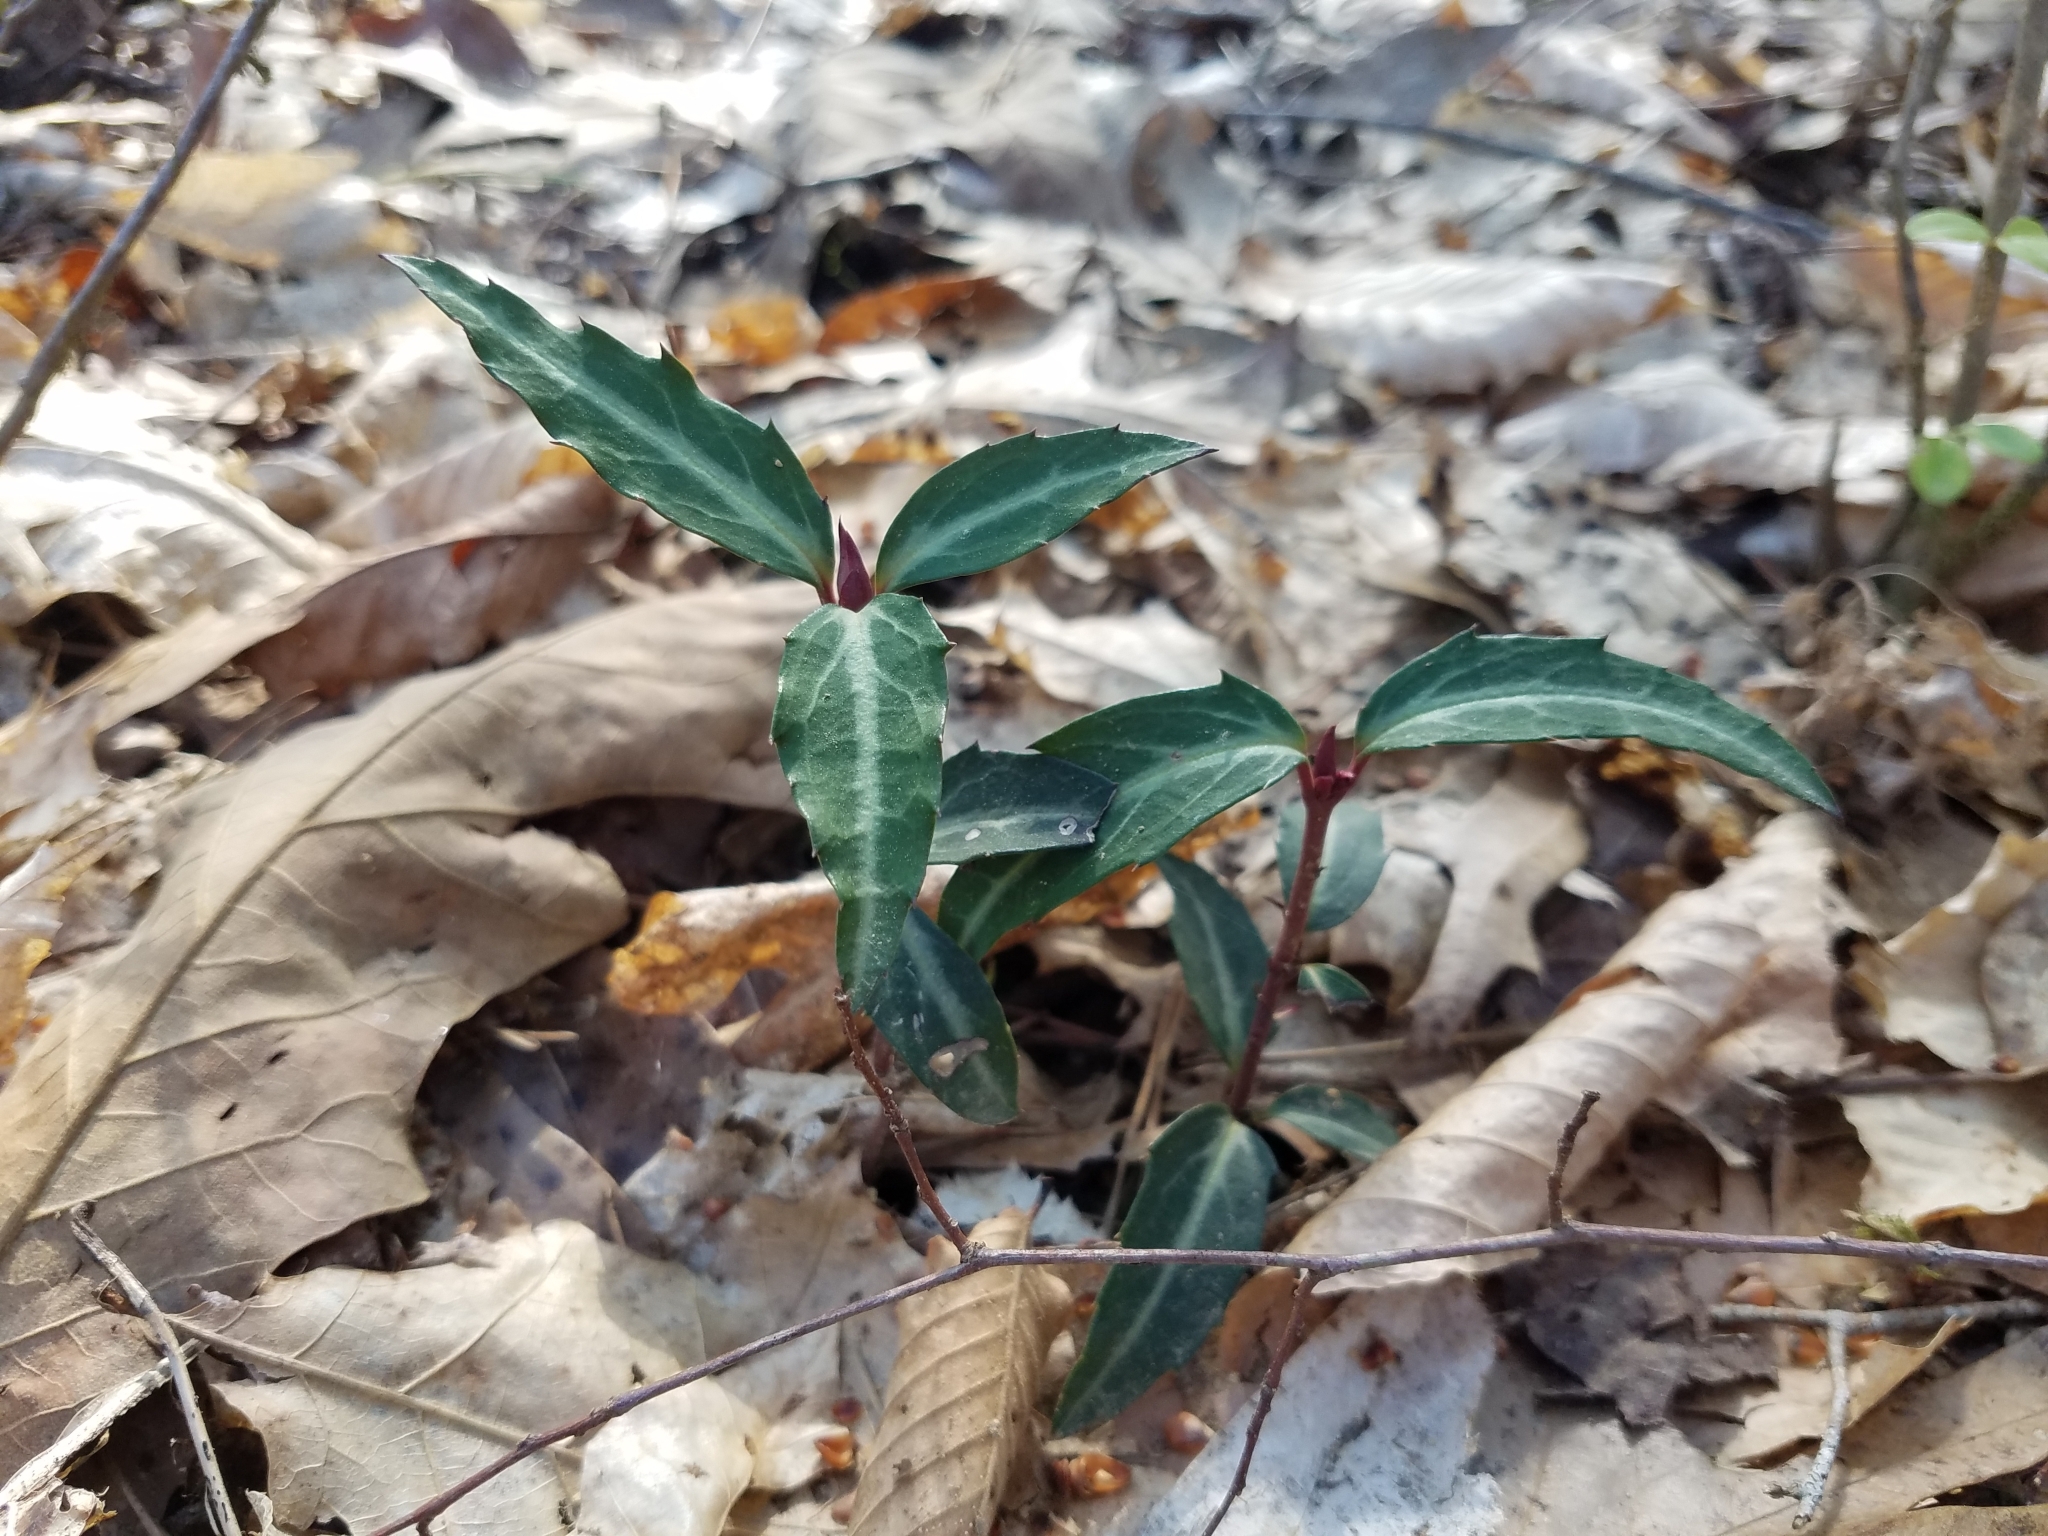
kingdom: Plantae
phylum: Tracheophyta
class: Magnoliopsida
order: Ericales
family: Ericaceae
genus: Chimaphila
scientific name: Chimaphila maculata
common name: Spotted pipsissewa
